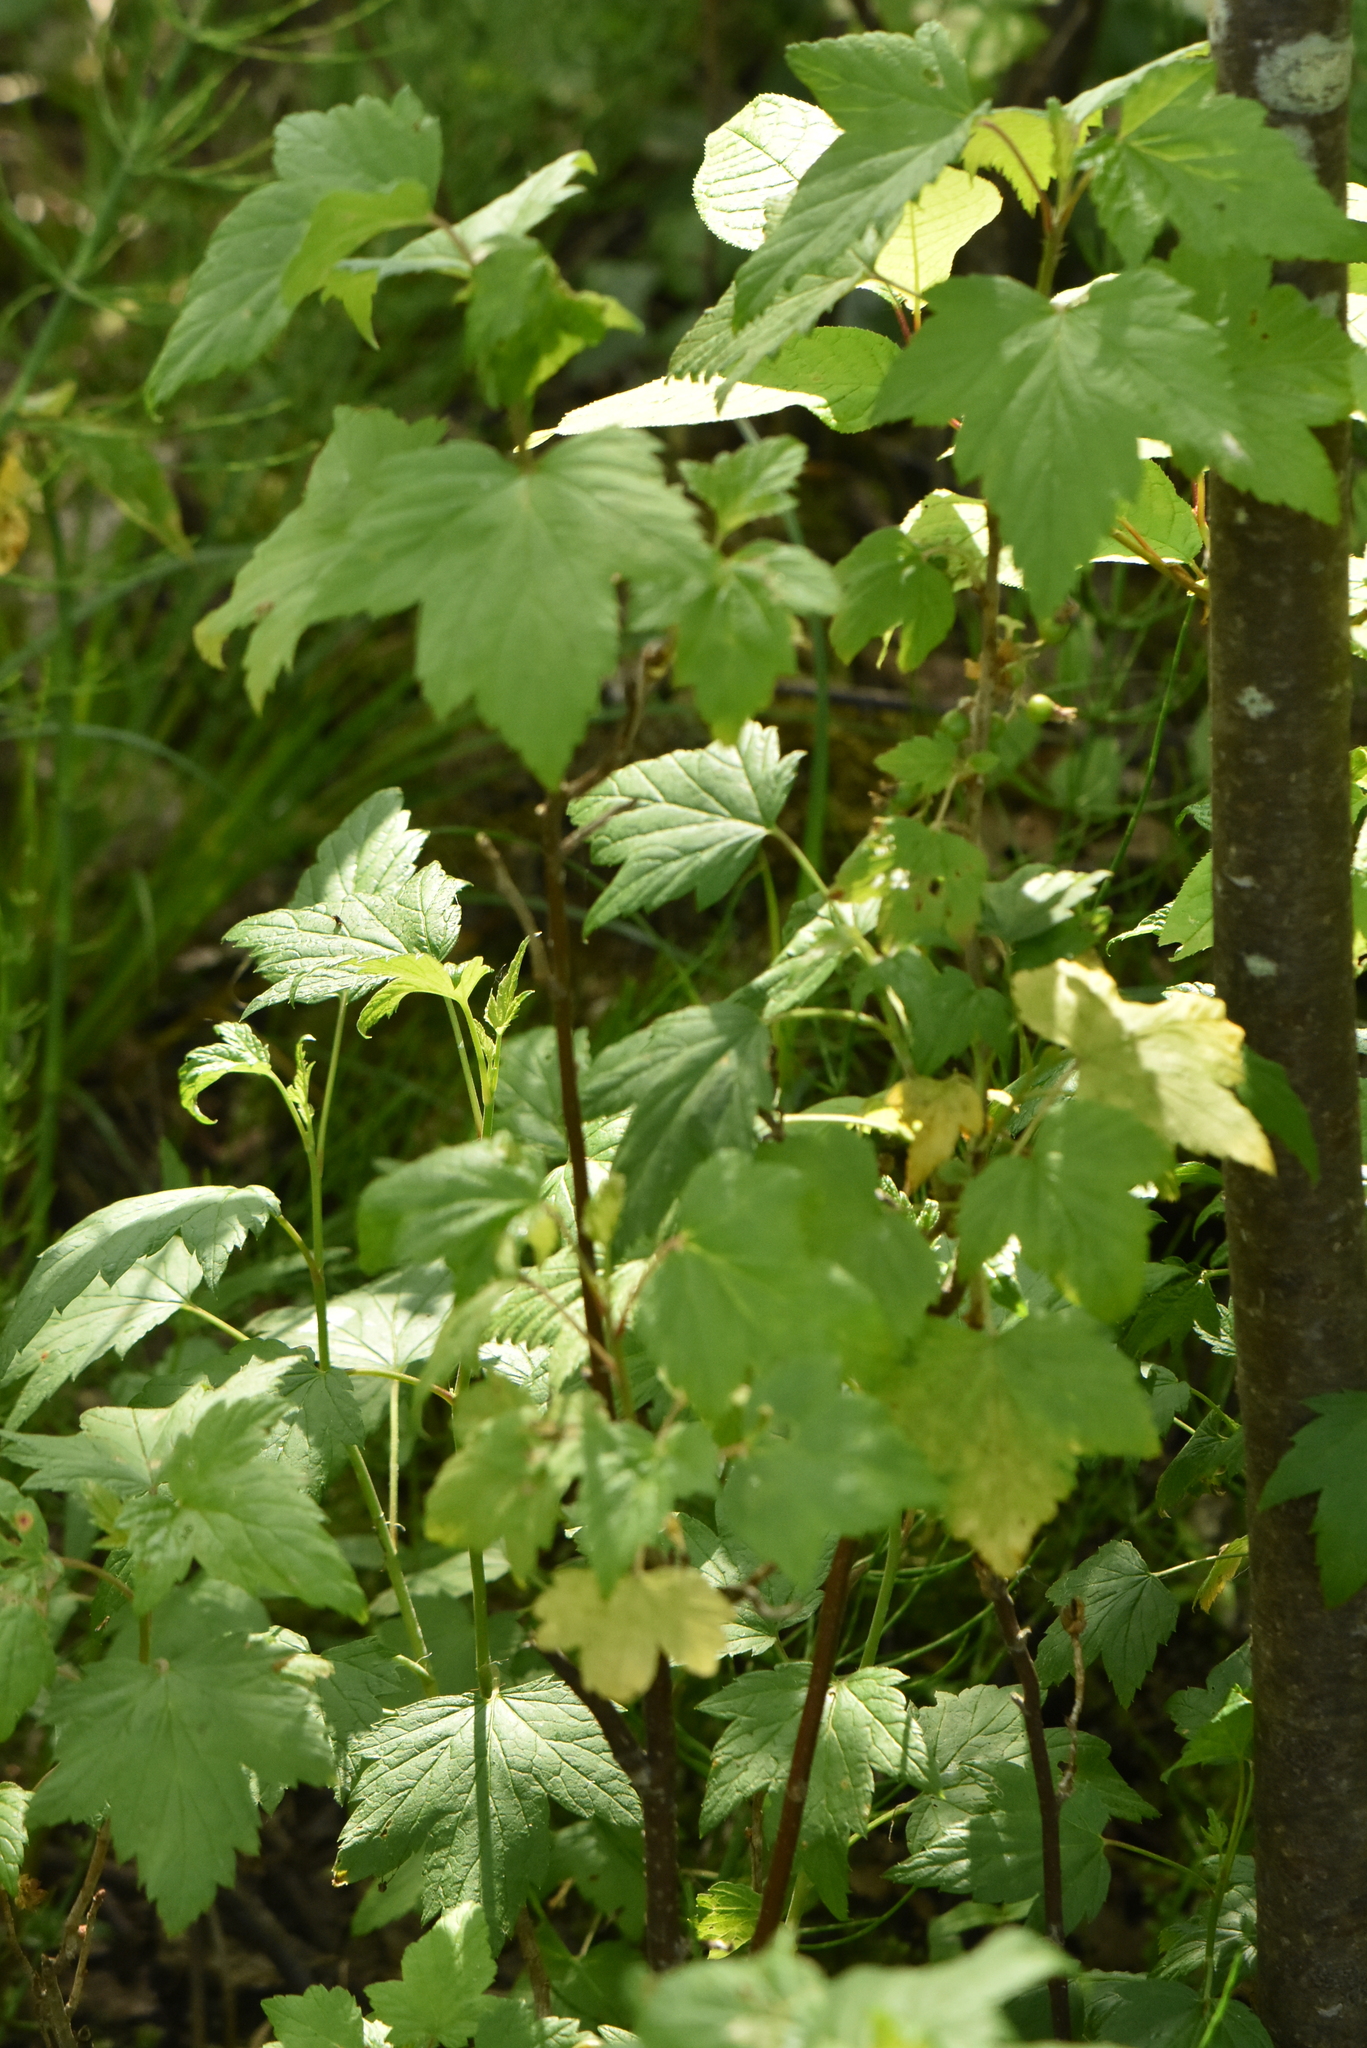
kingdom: Plantae
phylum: Tracheophyta
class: Magnoliopsida
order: Saxifragales
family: Grossulariaceae
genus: Ribes
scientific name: Ribes nigrum
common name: Black currant
